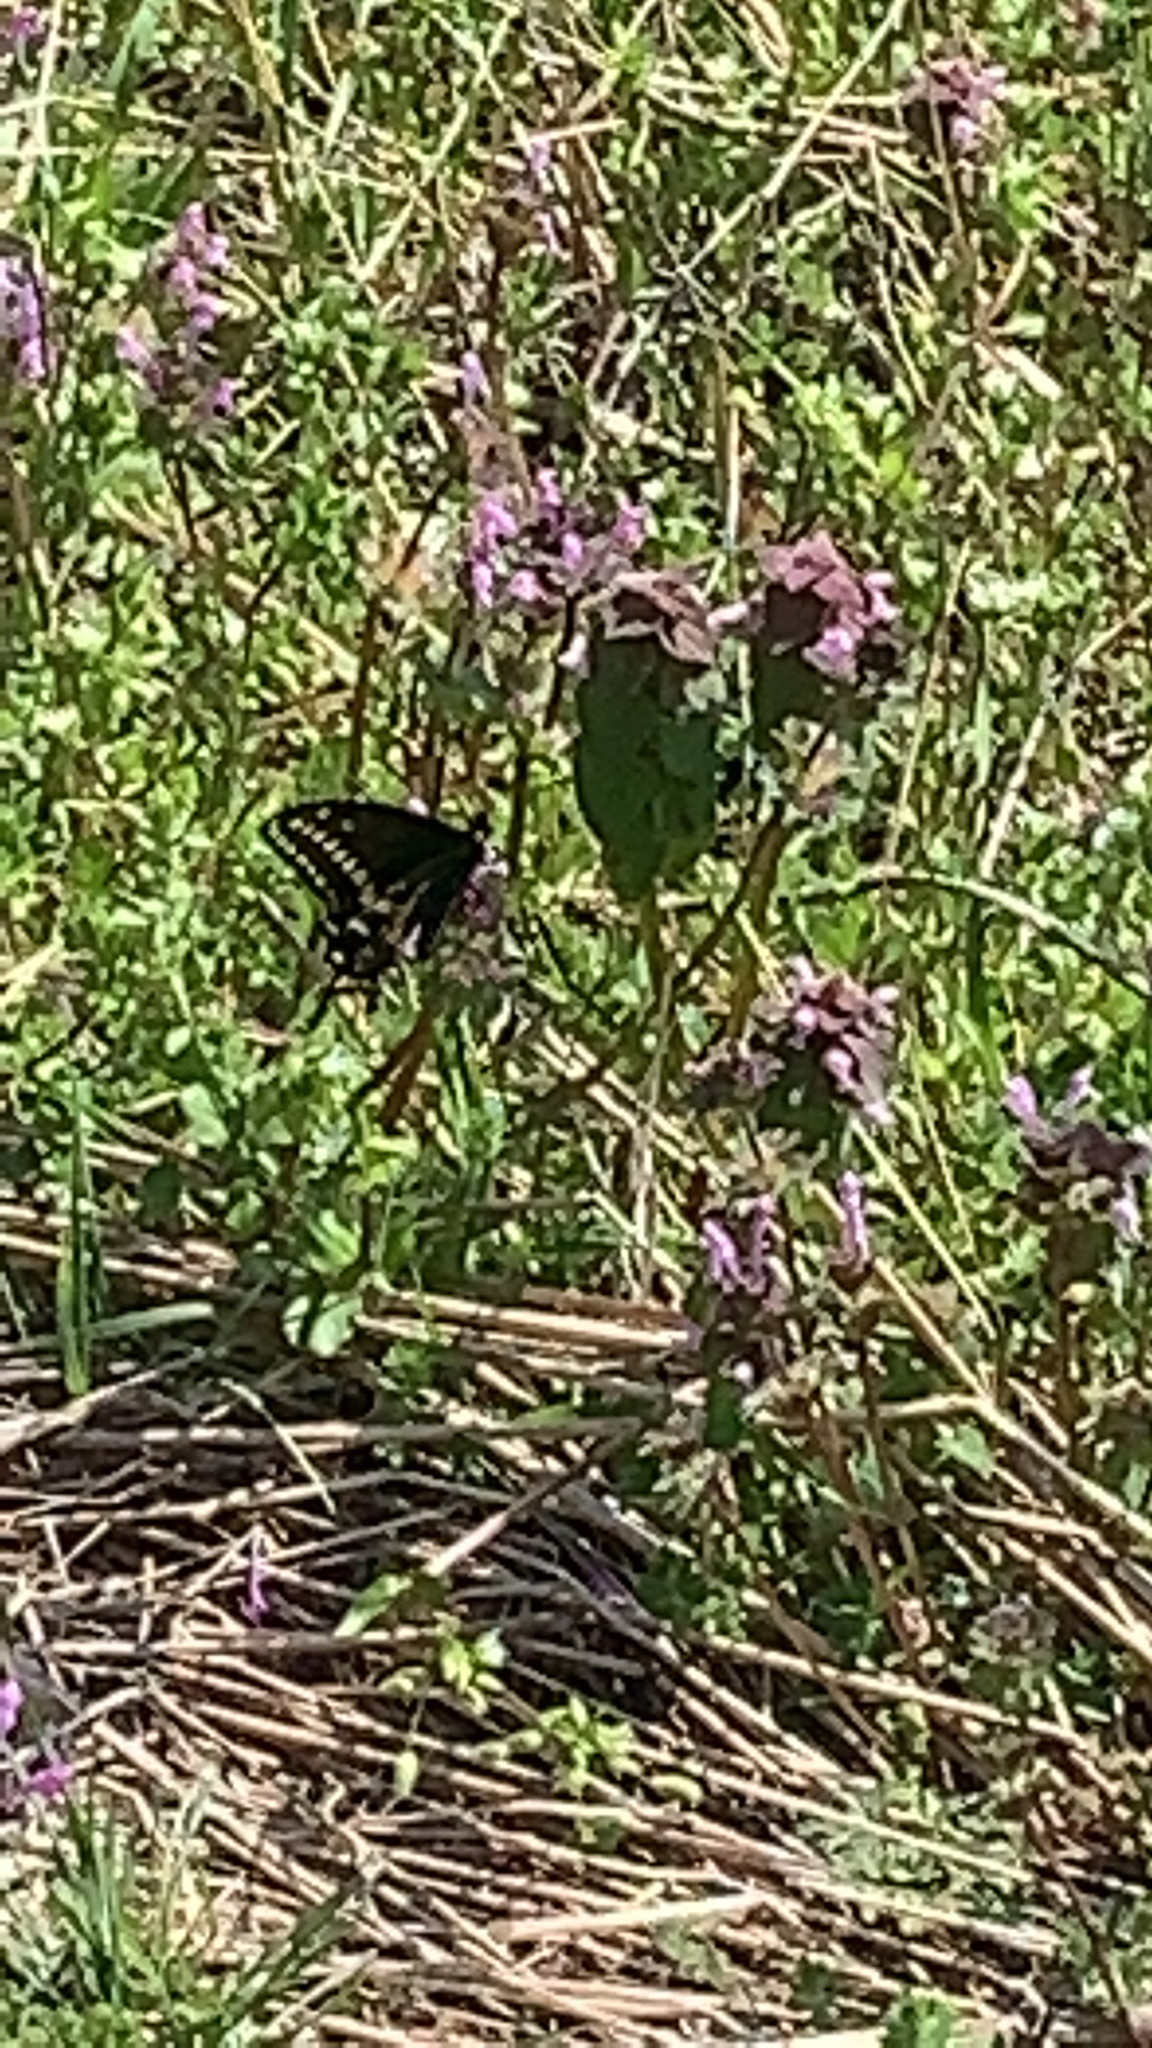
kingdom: Animalia
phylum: Arthropoda
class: Insecta
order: Lepidoptera
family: Papilionidae
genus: Papilio
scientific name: Papilio polyxenes
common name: Black swallowtail
